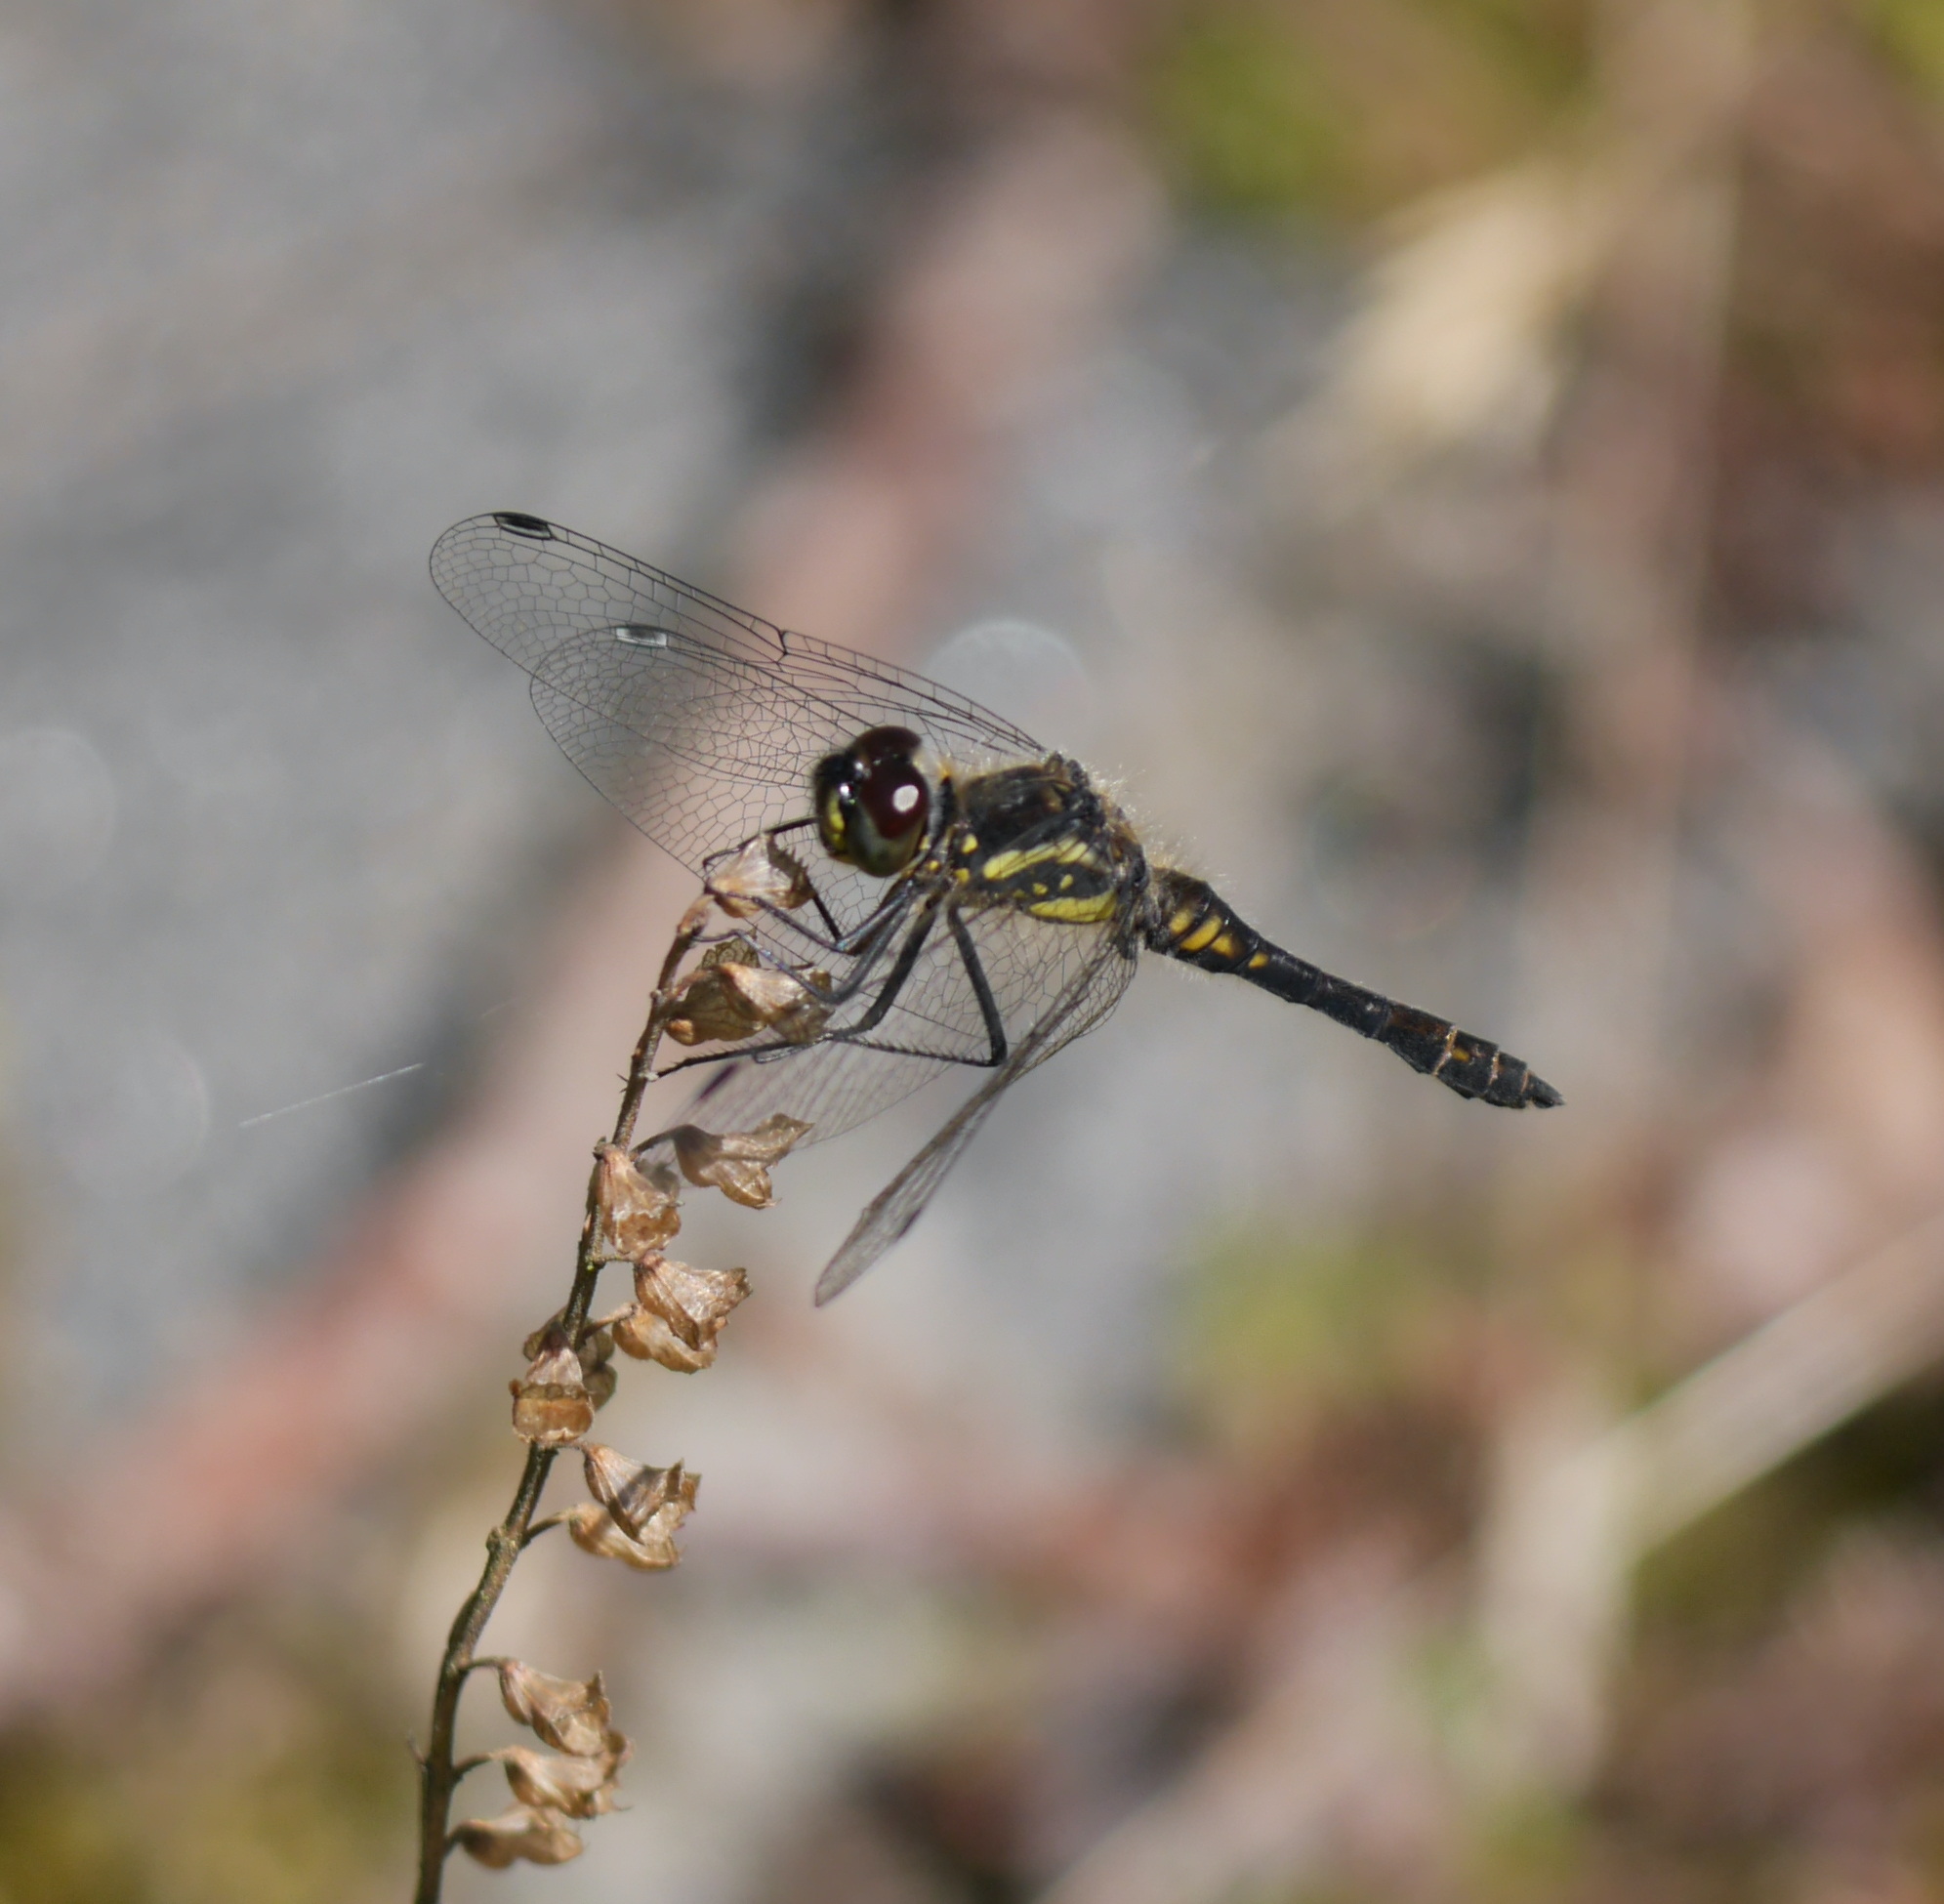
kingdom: Animalia
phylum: Arthropoda
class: Insecta
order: Odonata
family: Libellulidae
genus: Sympetrum
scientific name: Sympetrum danae
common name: Black darter
